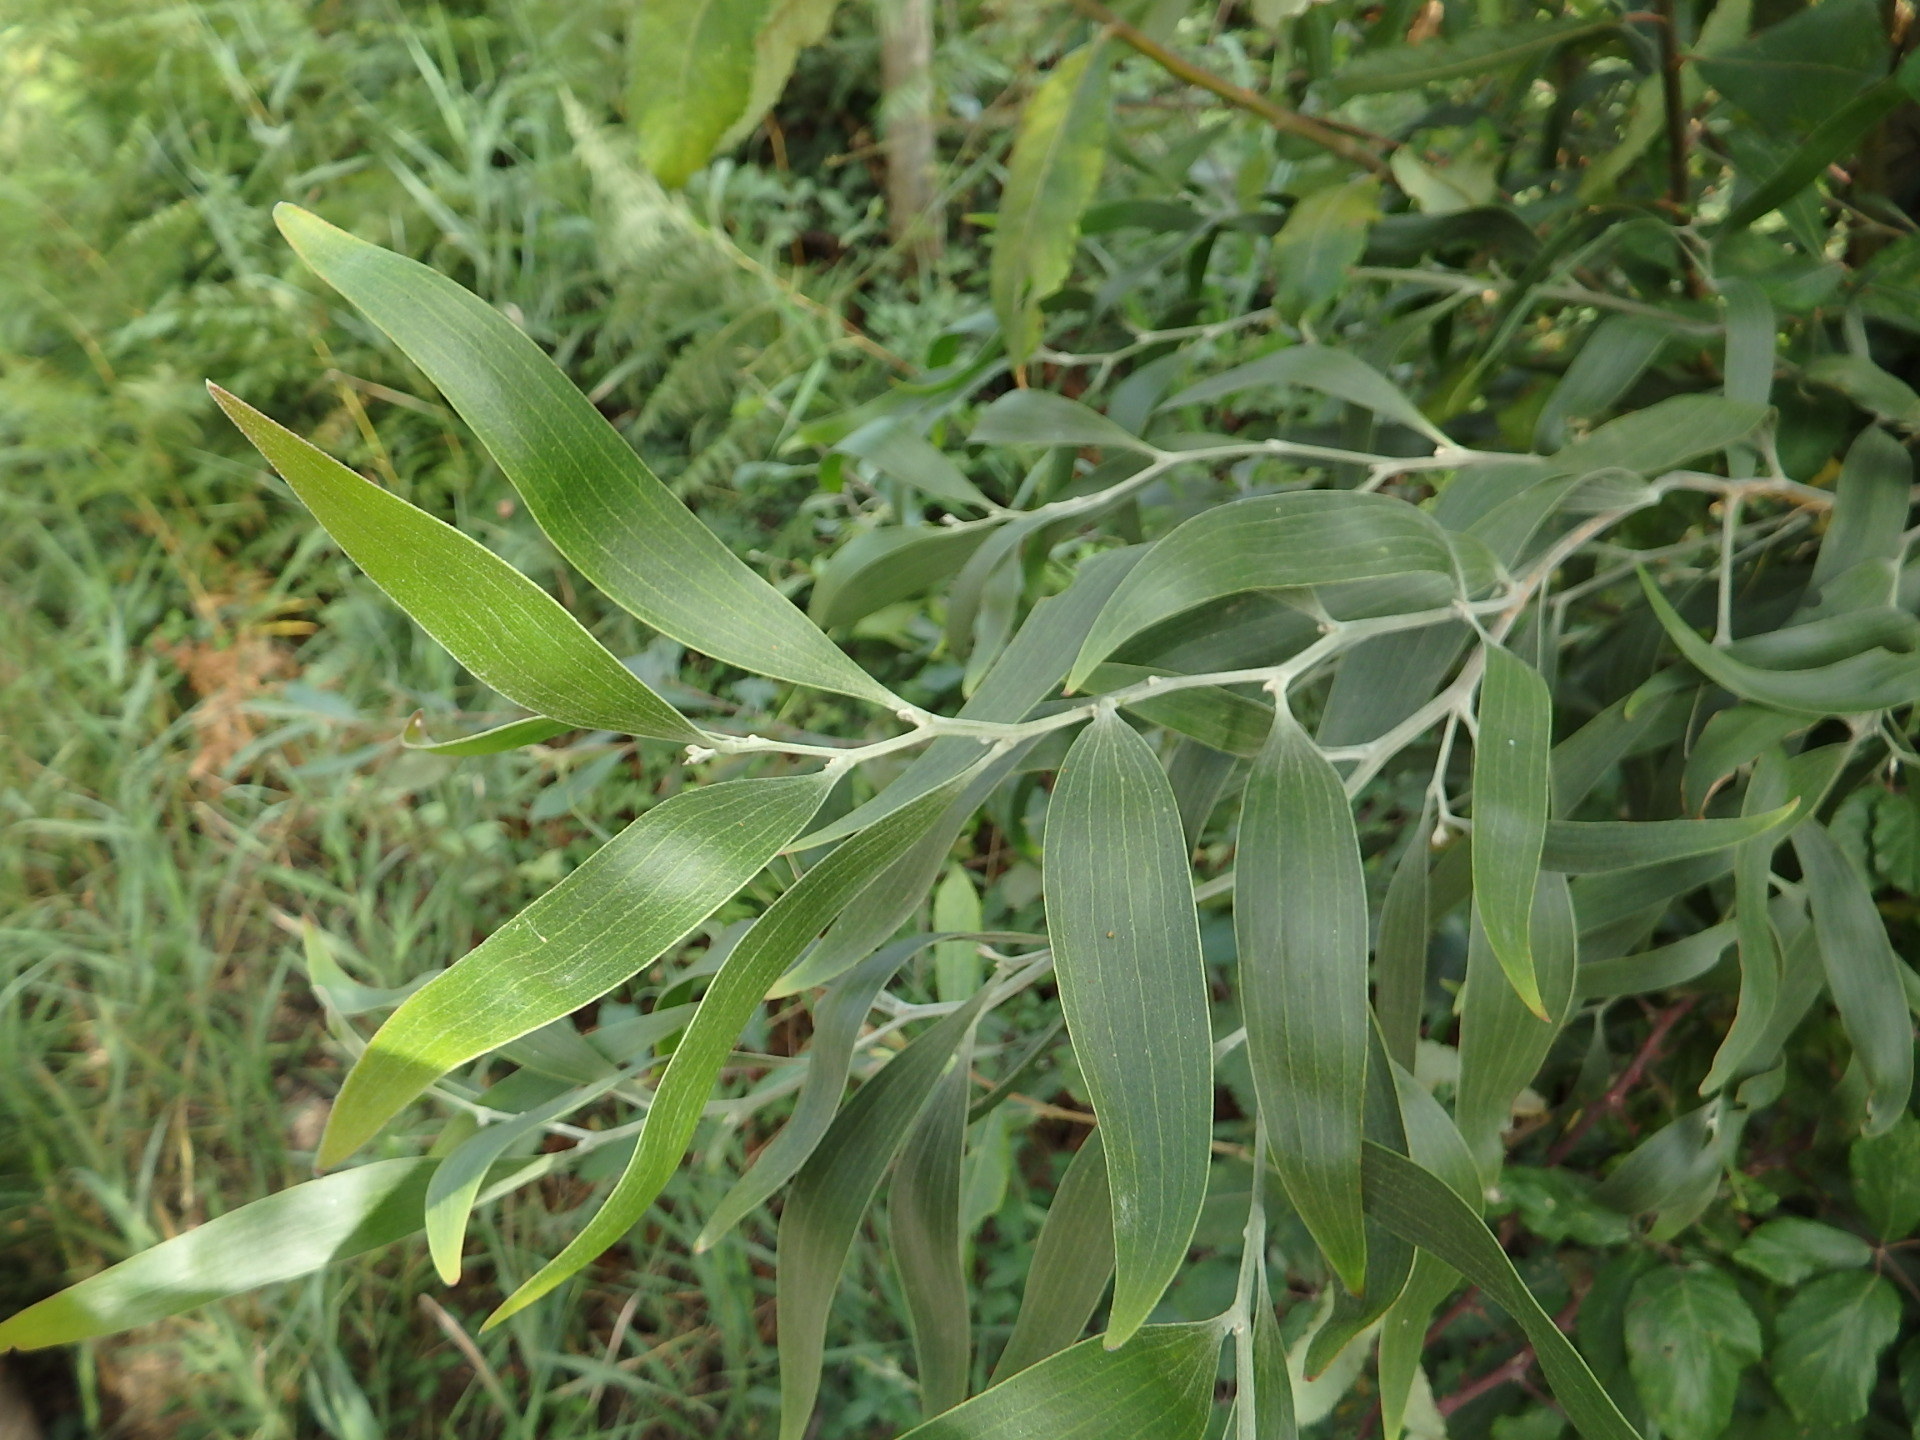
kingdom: Plantae
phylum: Tracheophyta
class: Magnoliopsida
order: Fabales
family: Fabaceae
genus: Acacia
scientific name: Acacia melanoxylon
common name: Blackwood
